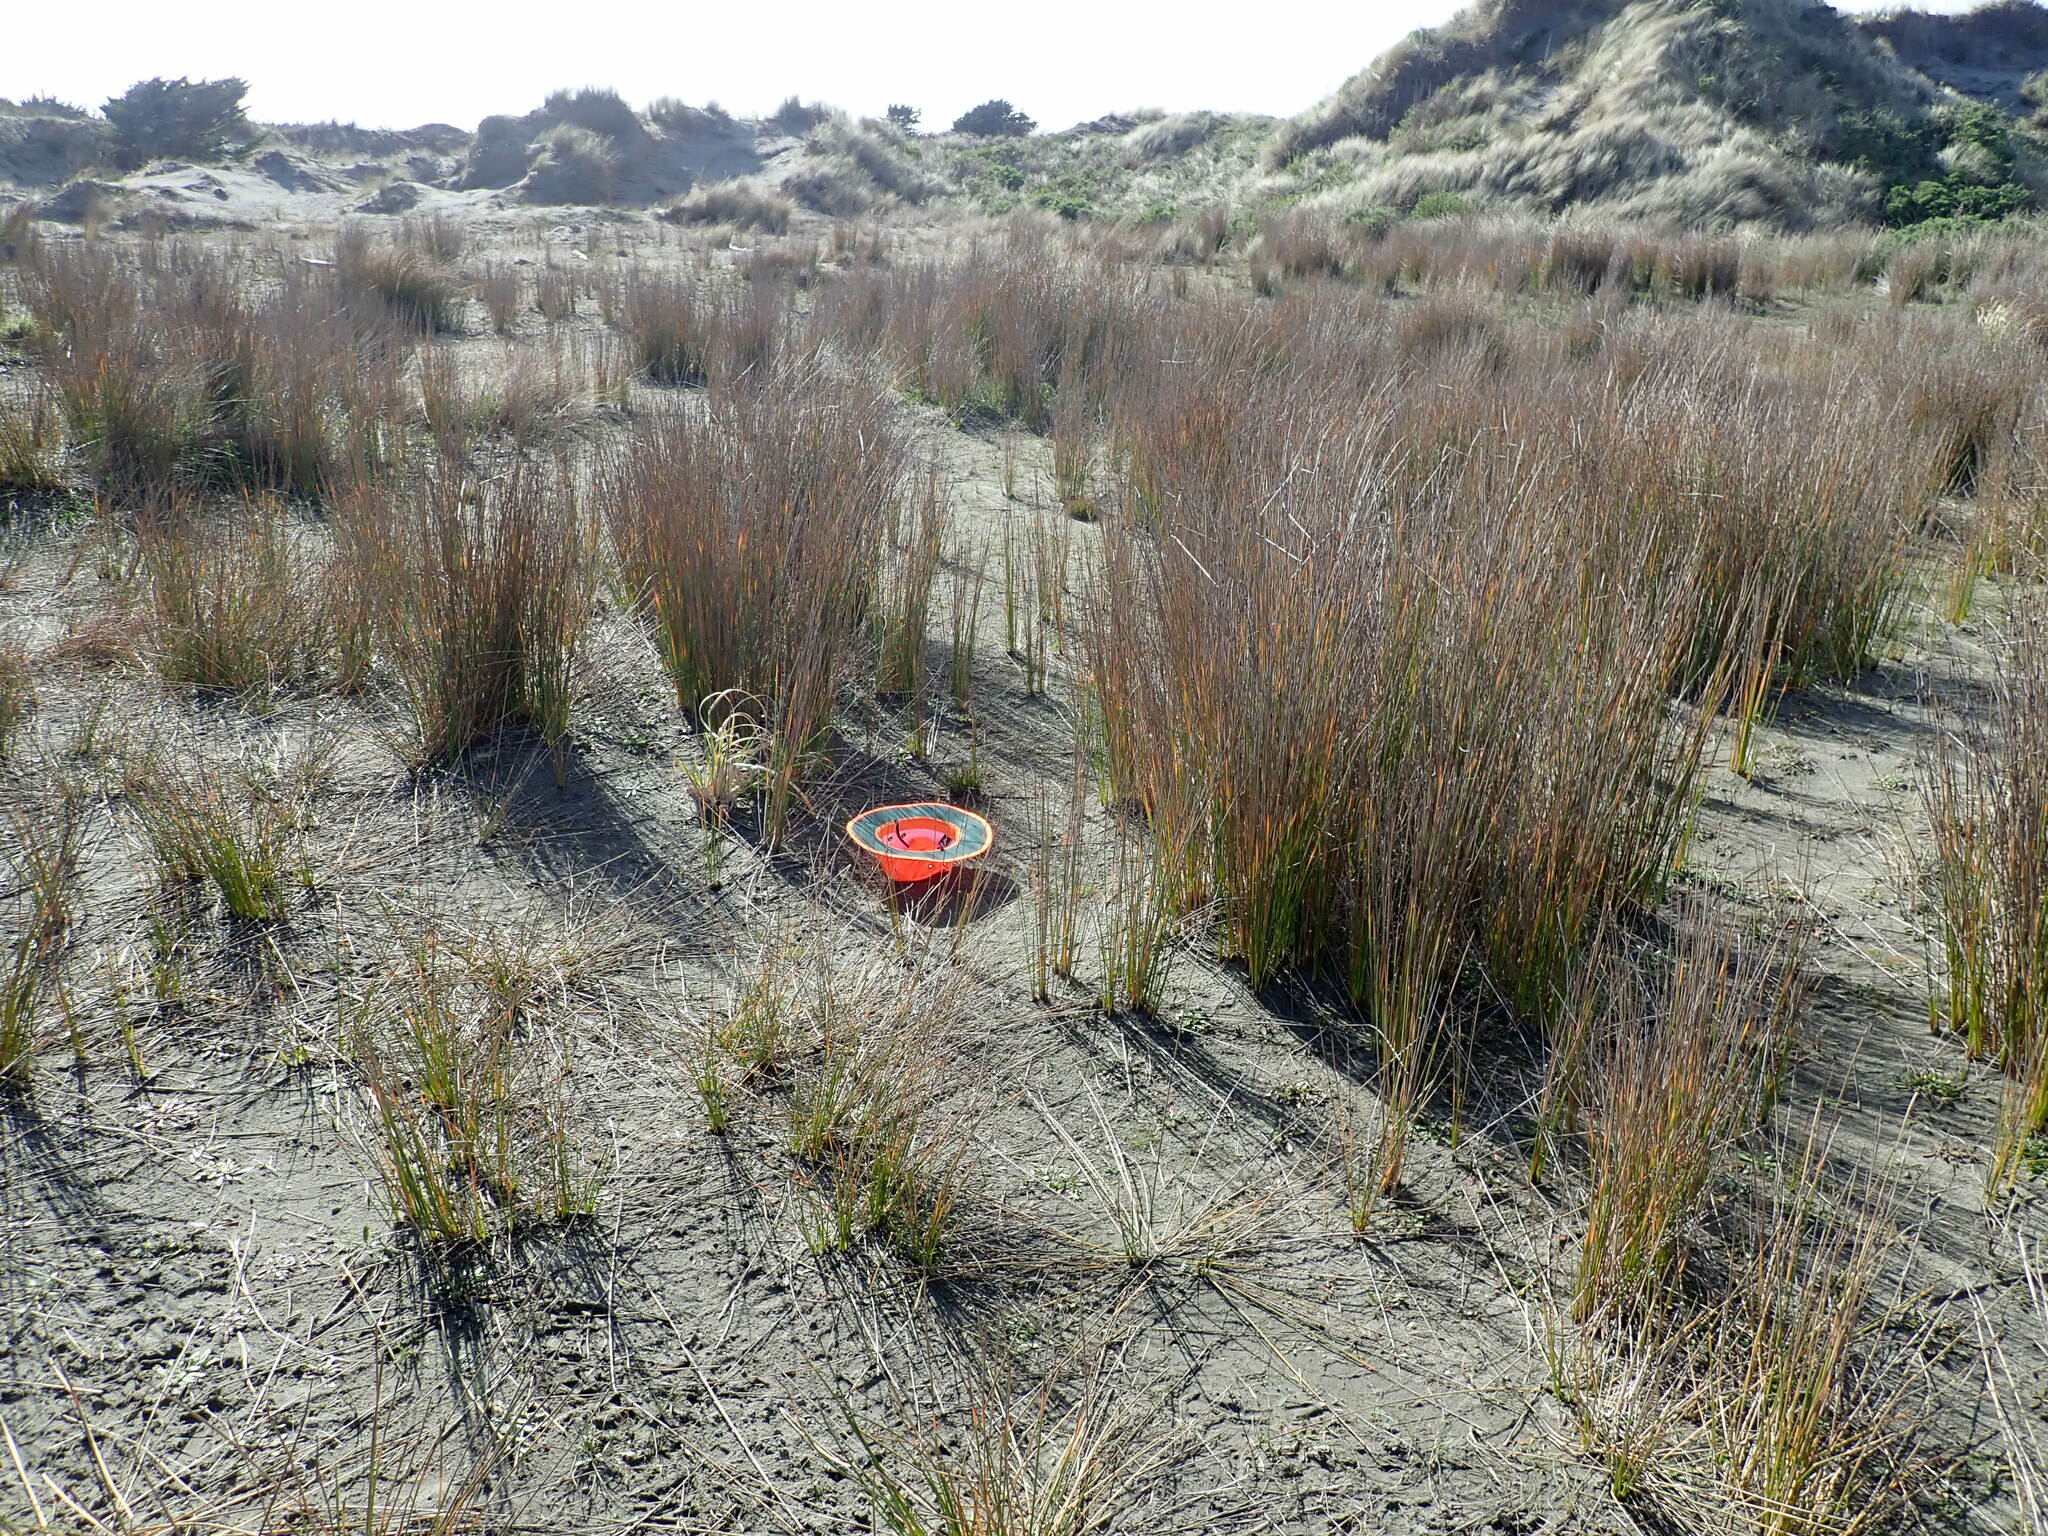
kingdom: Plantae
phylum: Tracheophyta
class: Liliopsida
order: Poales
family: Cyperaceae
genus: Ficinia
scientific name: Ficinia nodosa
